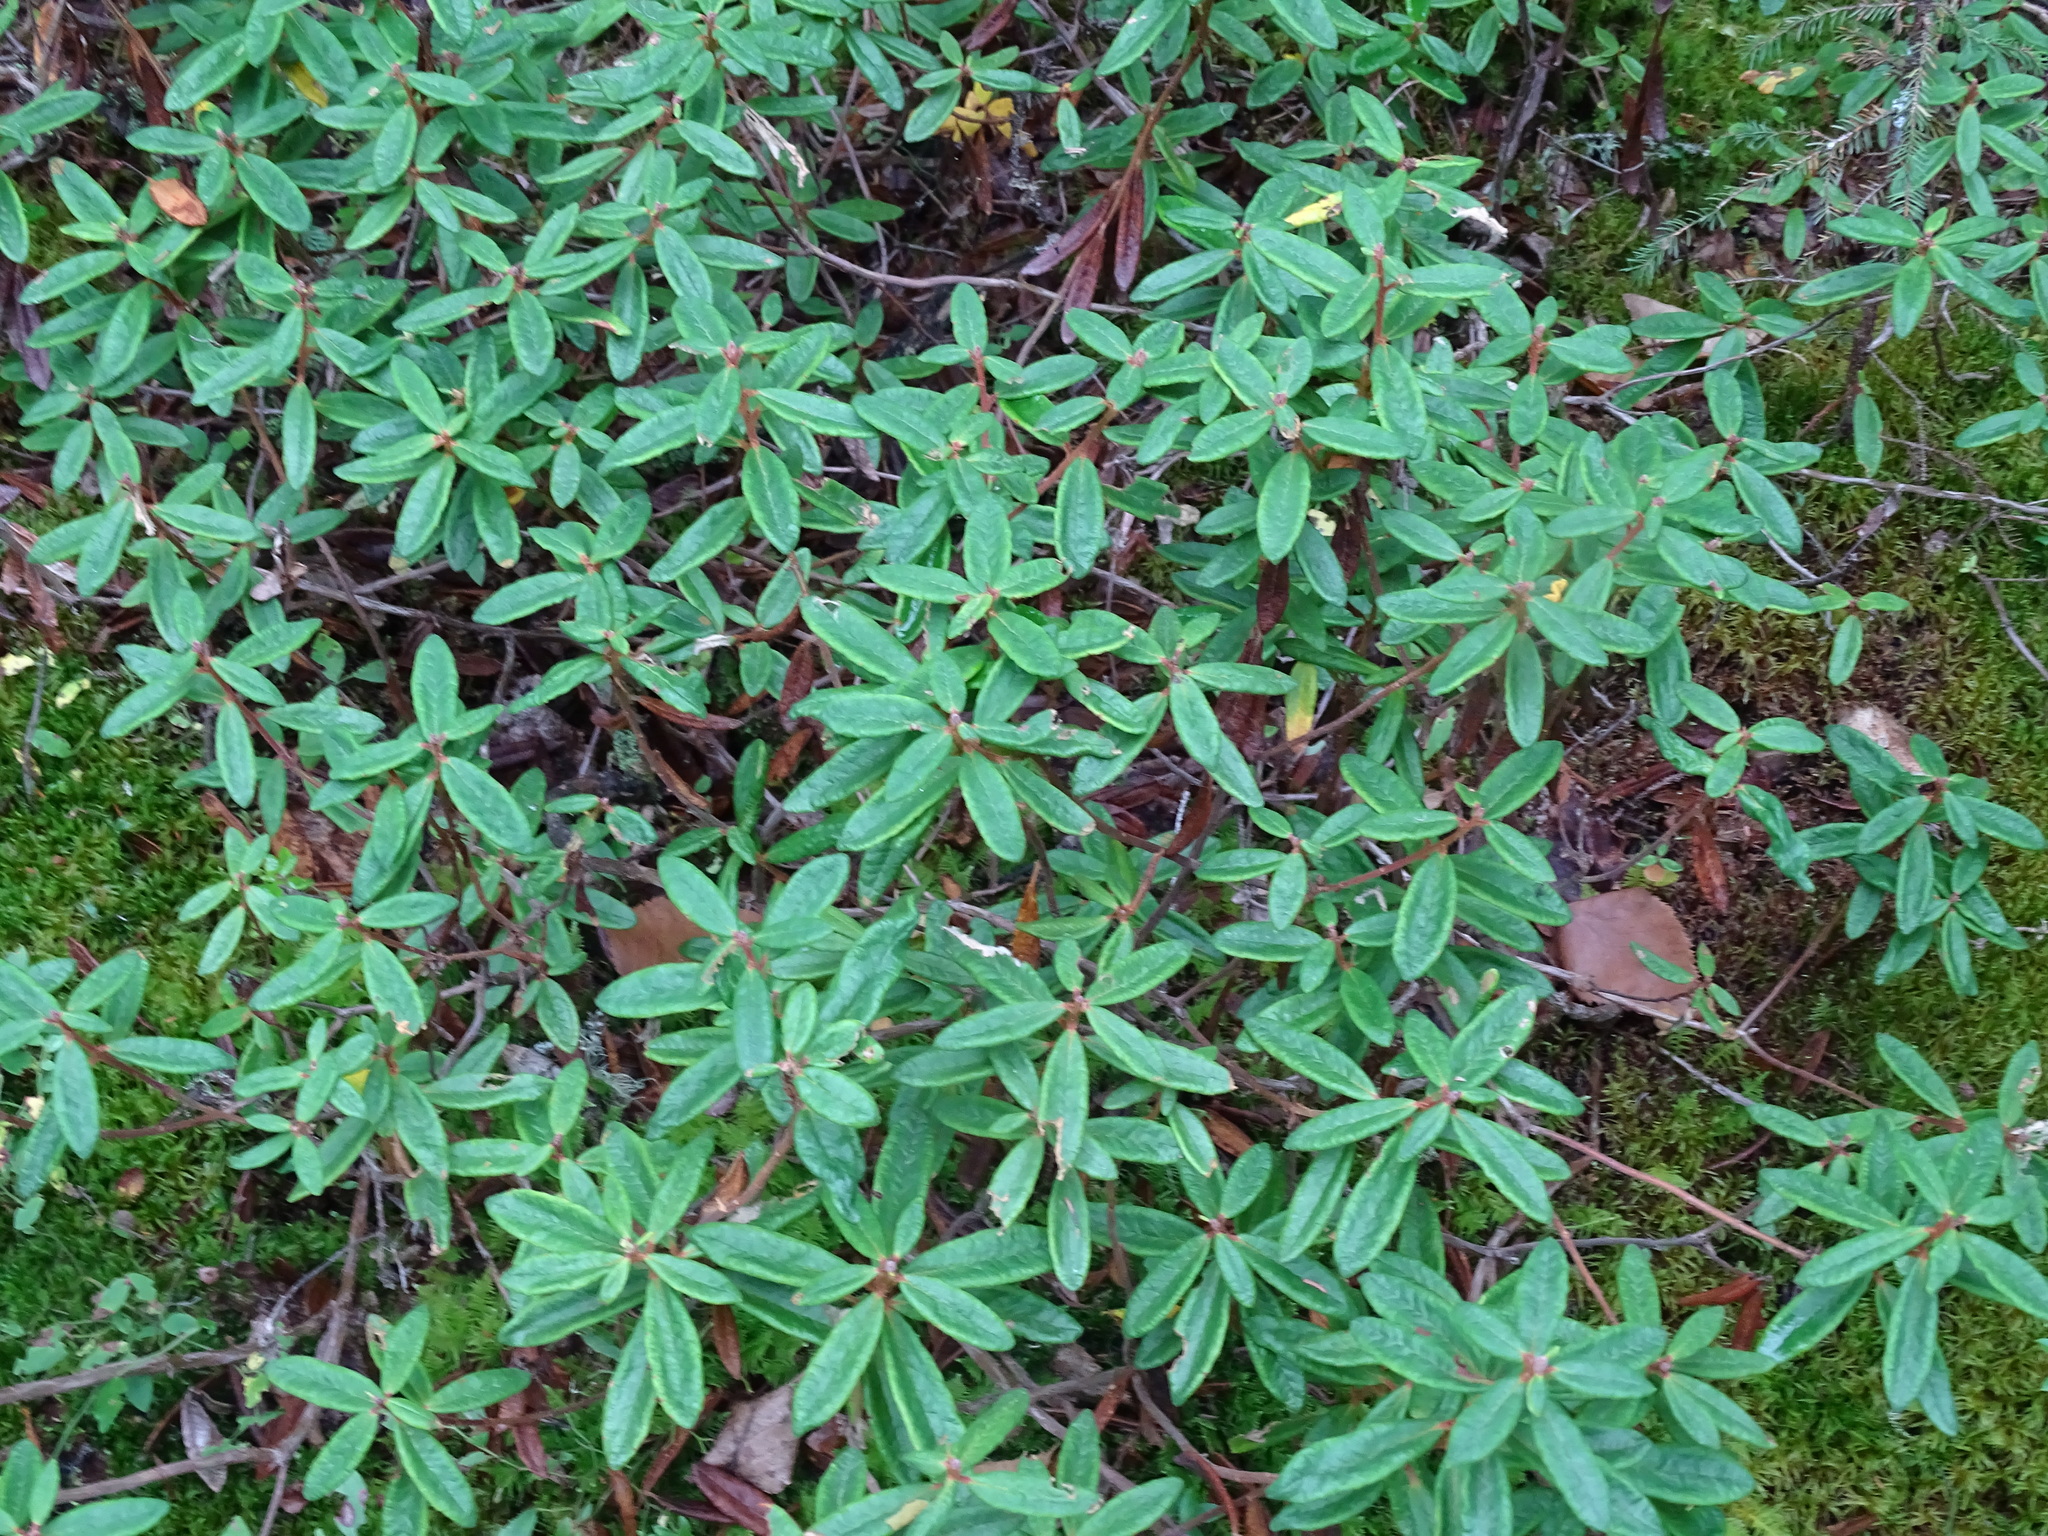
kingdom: Plantae
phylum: Tracheophyta
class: Magnoliopsida
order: Ericales
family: Ericaceae
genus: Rhododendron
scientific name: Rhododendron groenlandicum
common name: Bog labrador tea
